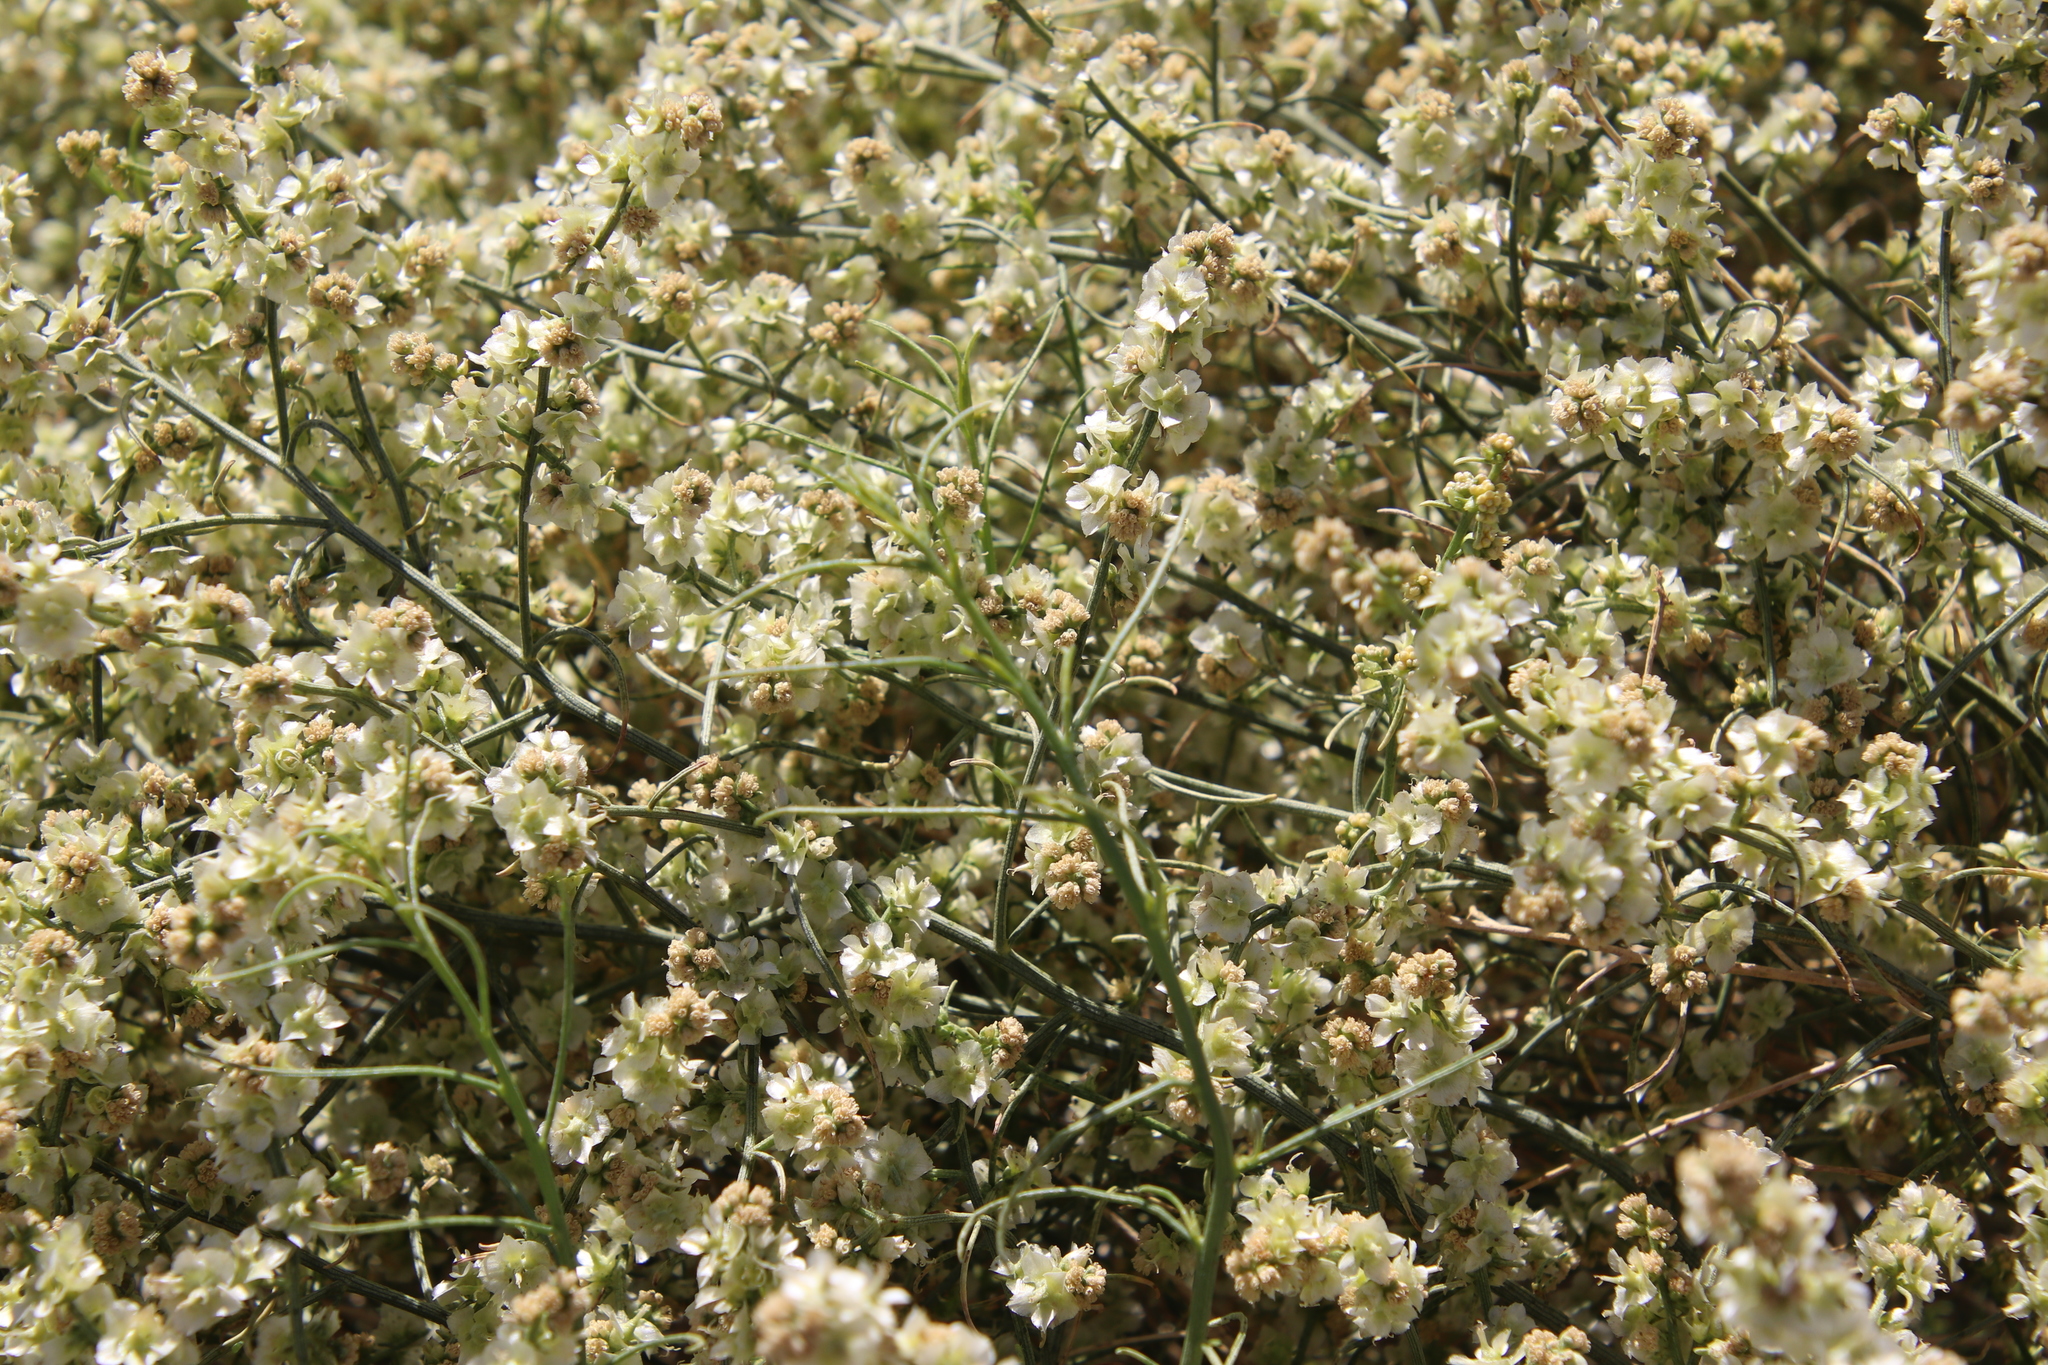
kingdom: Plantae
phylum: Tracheophyta
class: Magnoliopsida
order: Asterales
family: Asteraceae
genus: Ambrosia
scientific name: Ambrosia salsola
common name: Burrobrush
